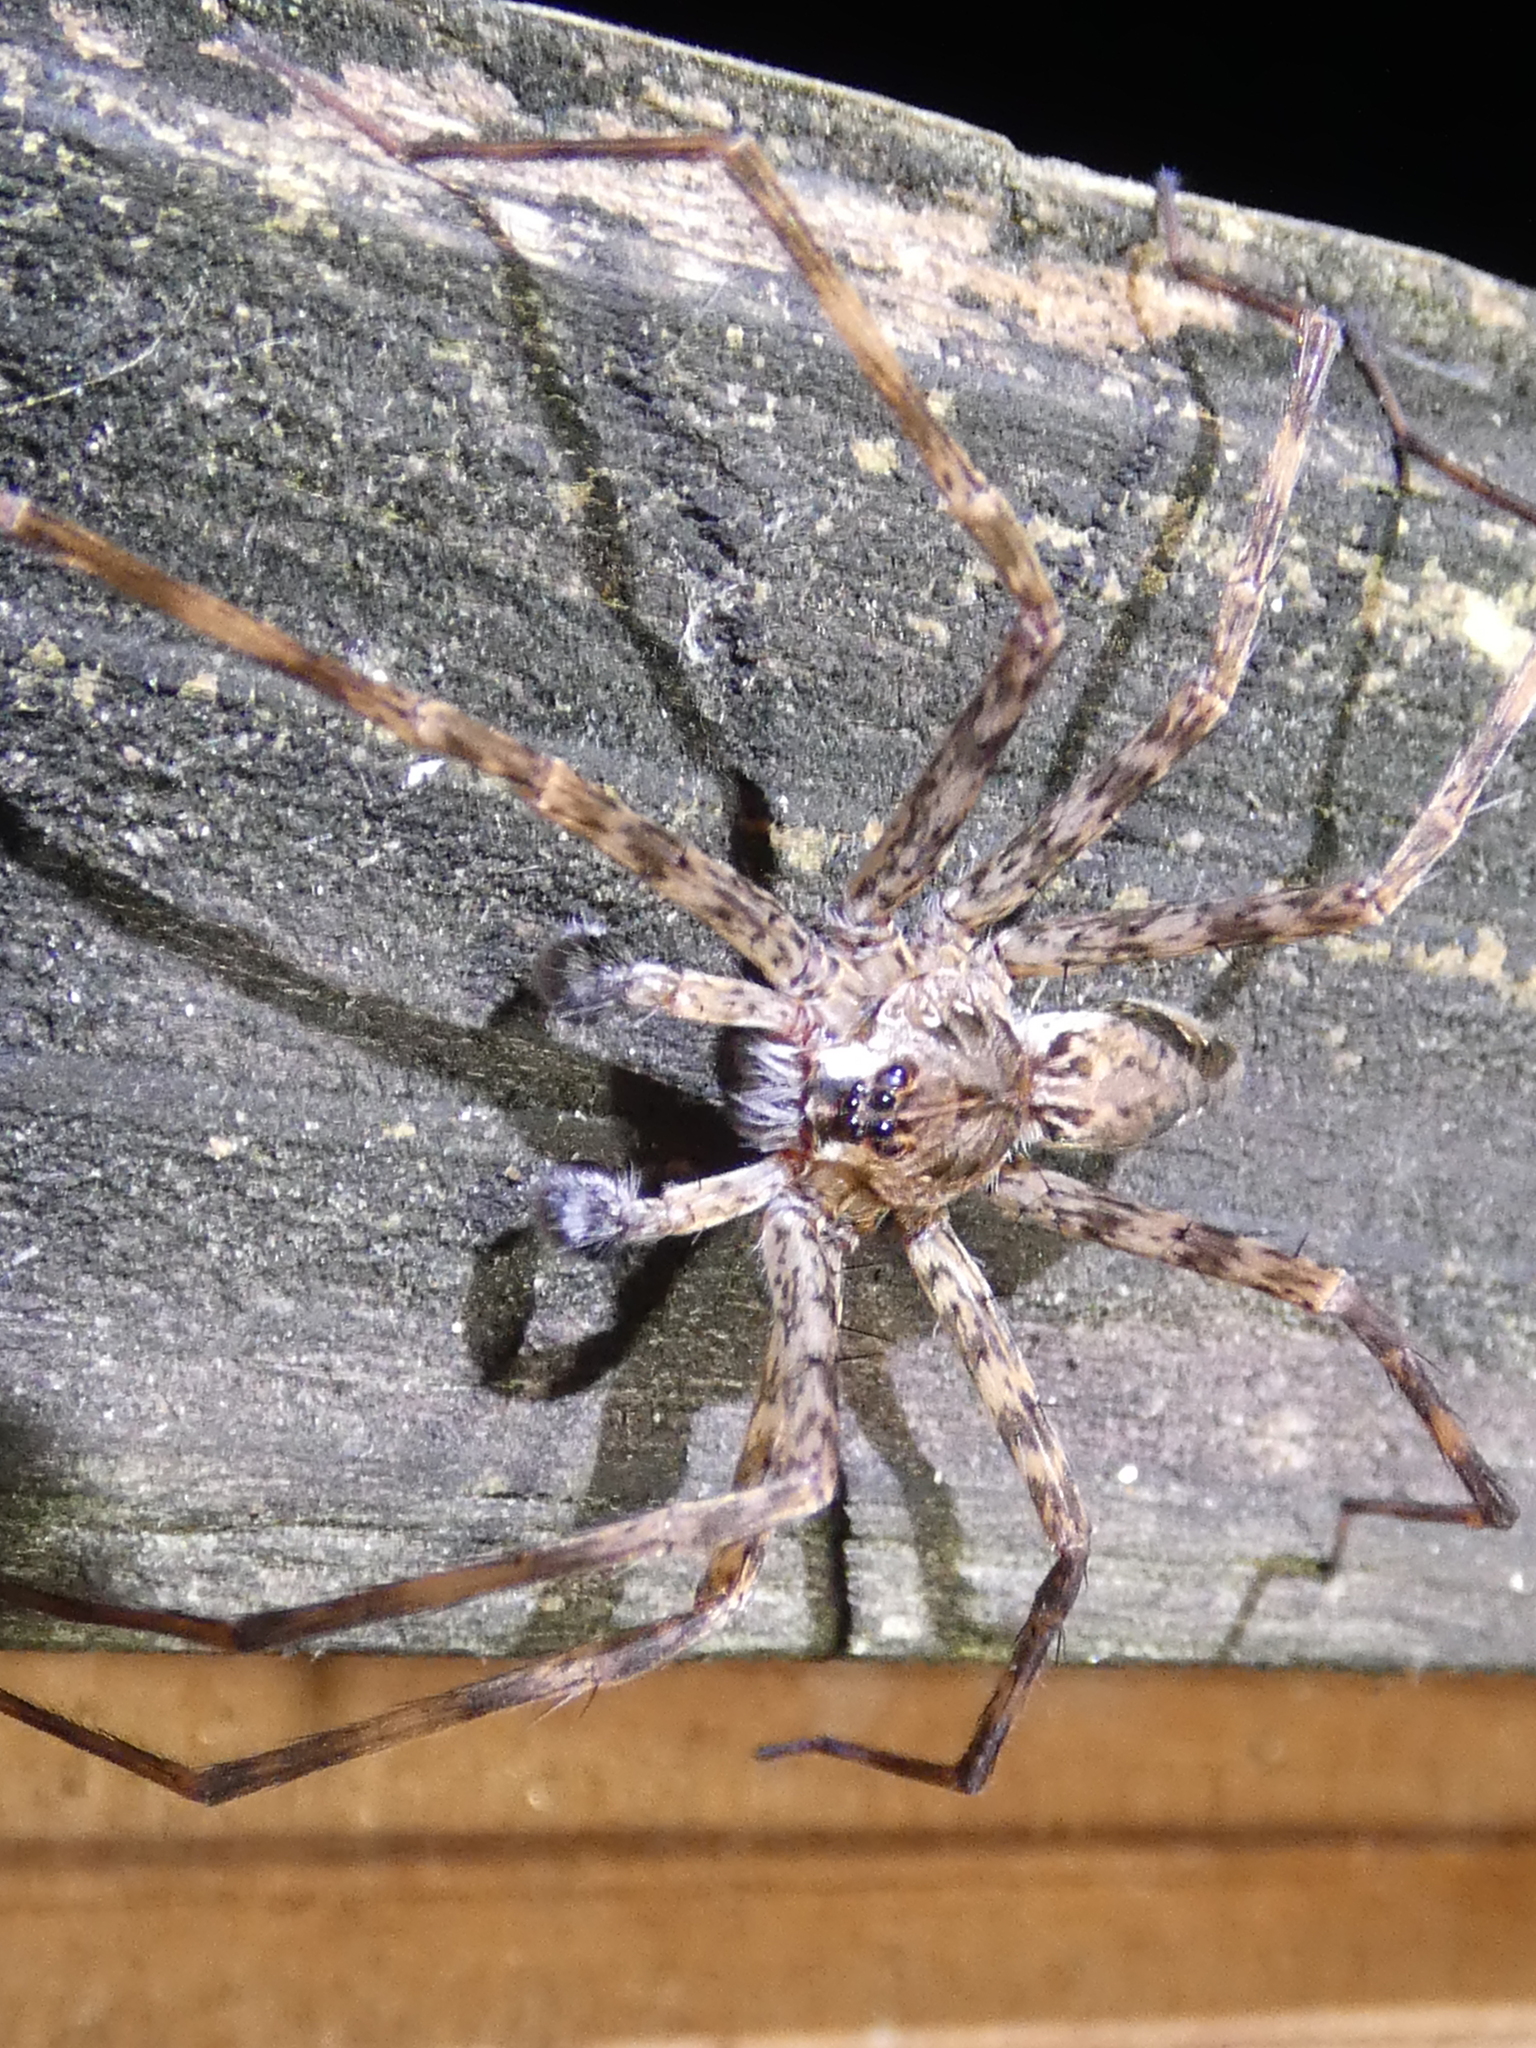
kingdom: Animalia
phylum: Arthropoda
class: Arachnida
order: Araneae
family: Pisauridae
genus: Dolomedes
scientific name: Dolomedes tenebrosus
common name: Dark fishing spider
